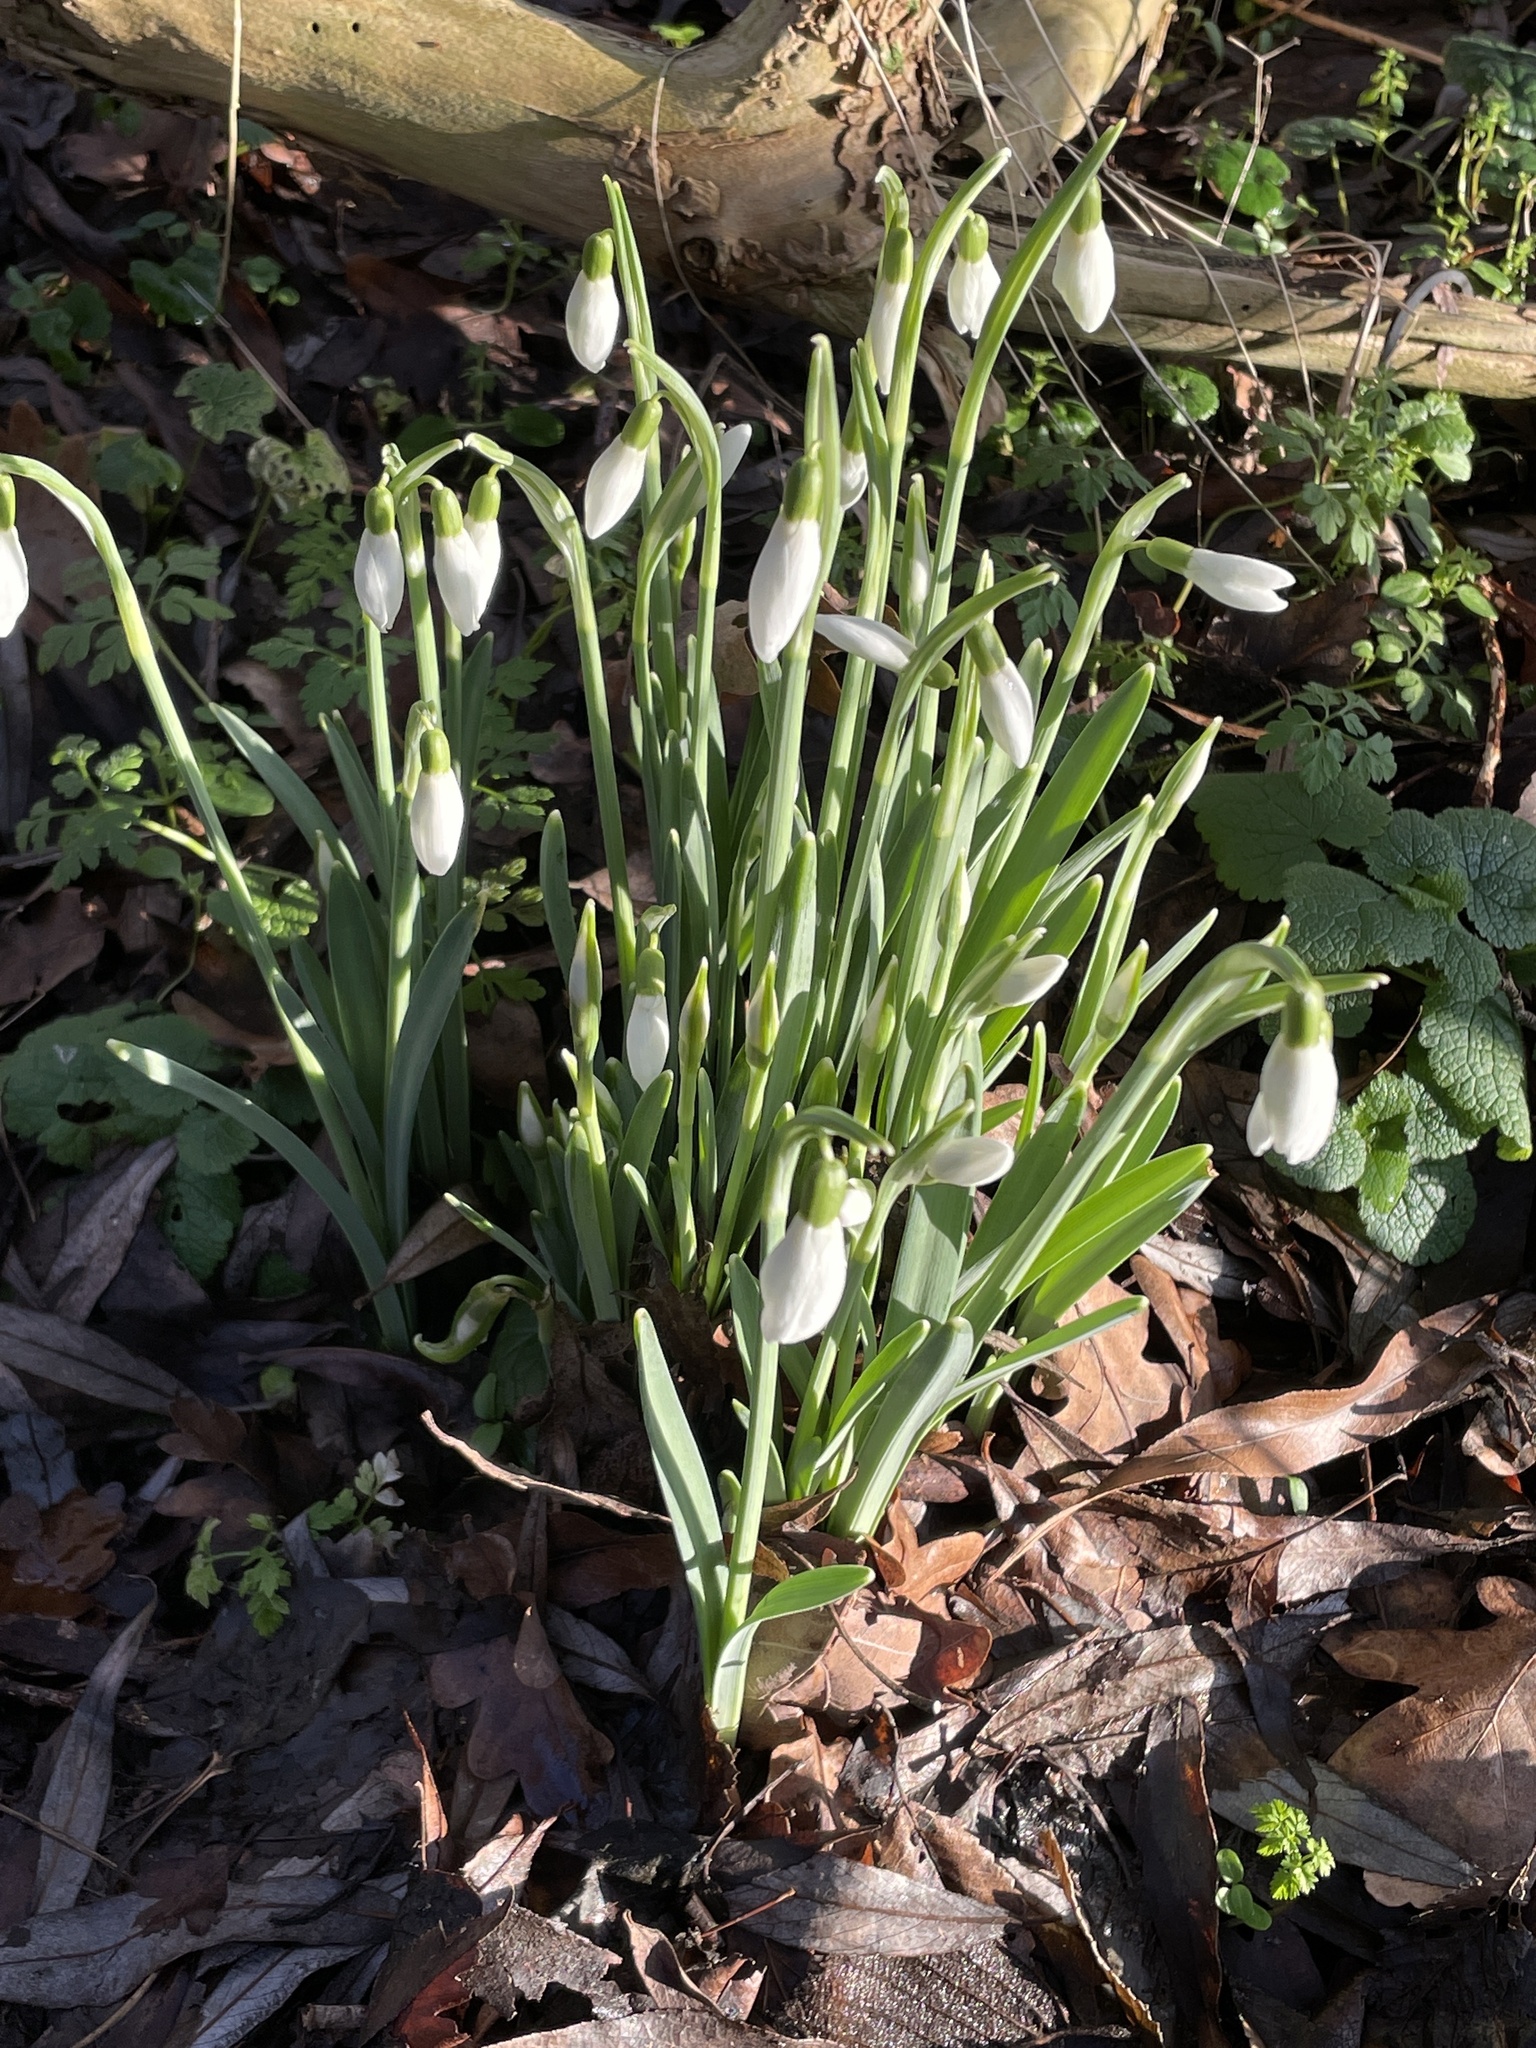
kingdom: Plantae
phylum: Tracheophyta
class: Liliopsida
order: Asparagales
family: Amaryllidaceae
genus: Galanthus
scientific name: Galanthus nivalis
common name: Snowdrop
